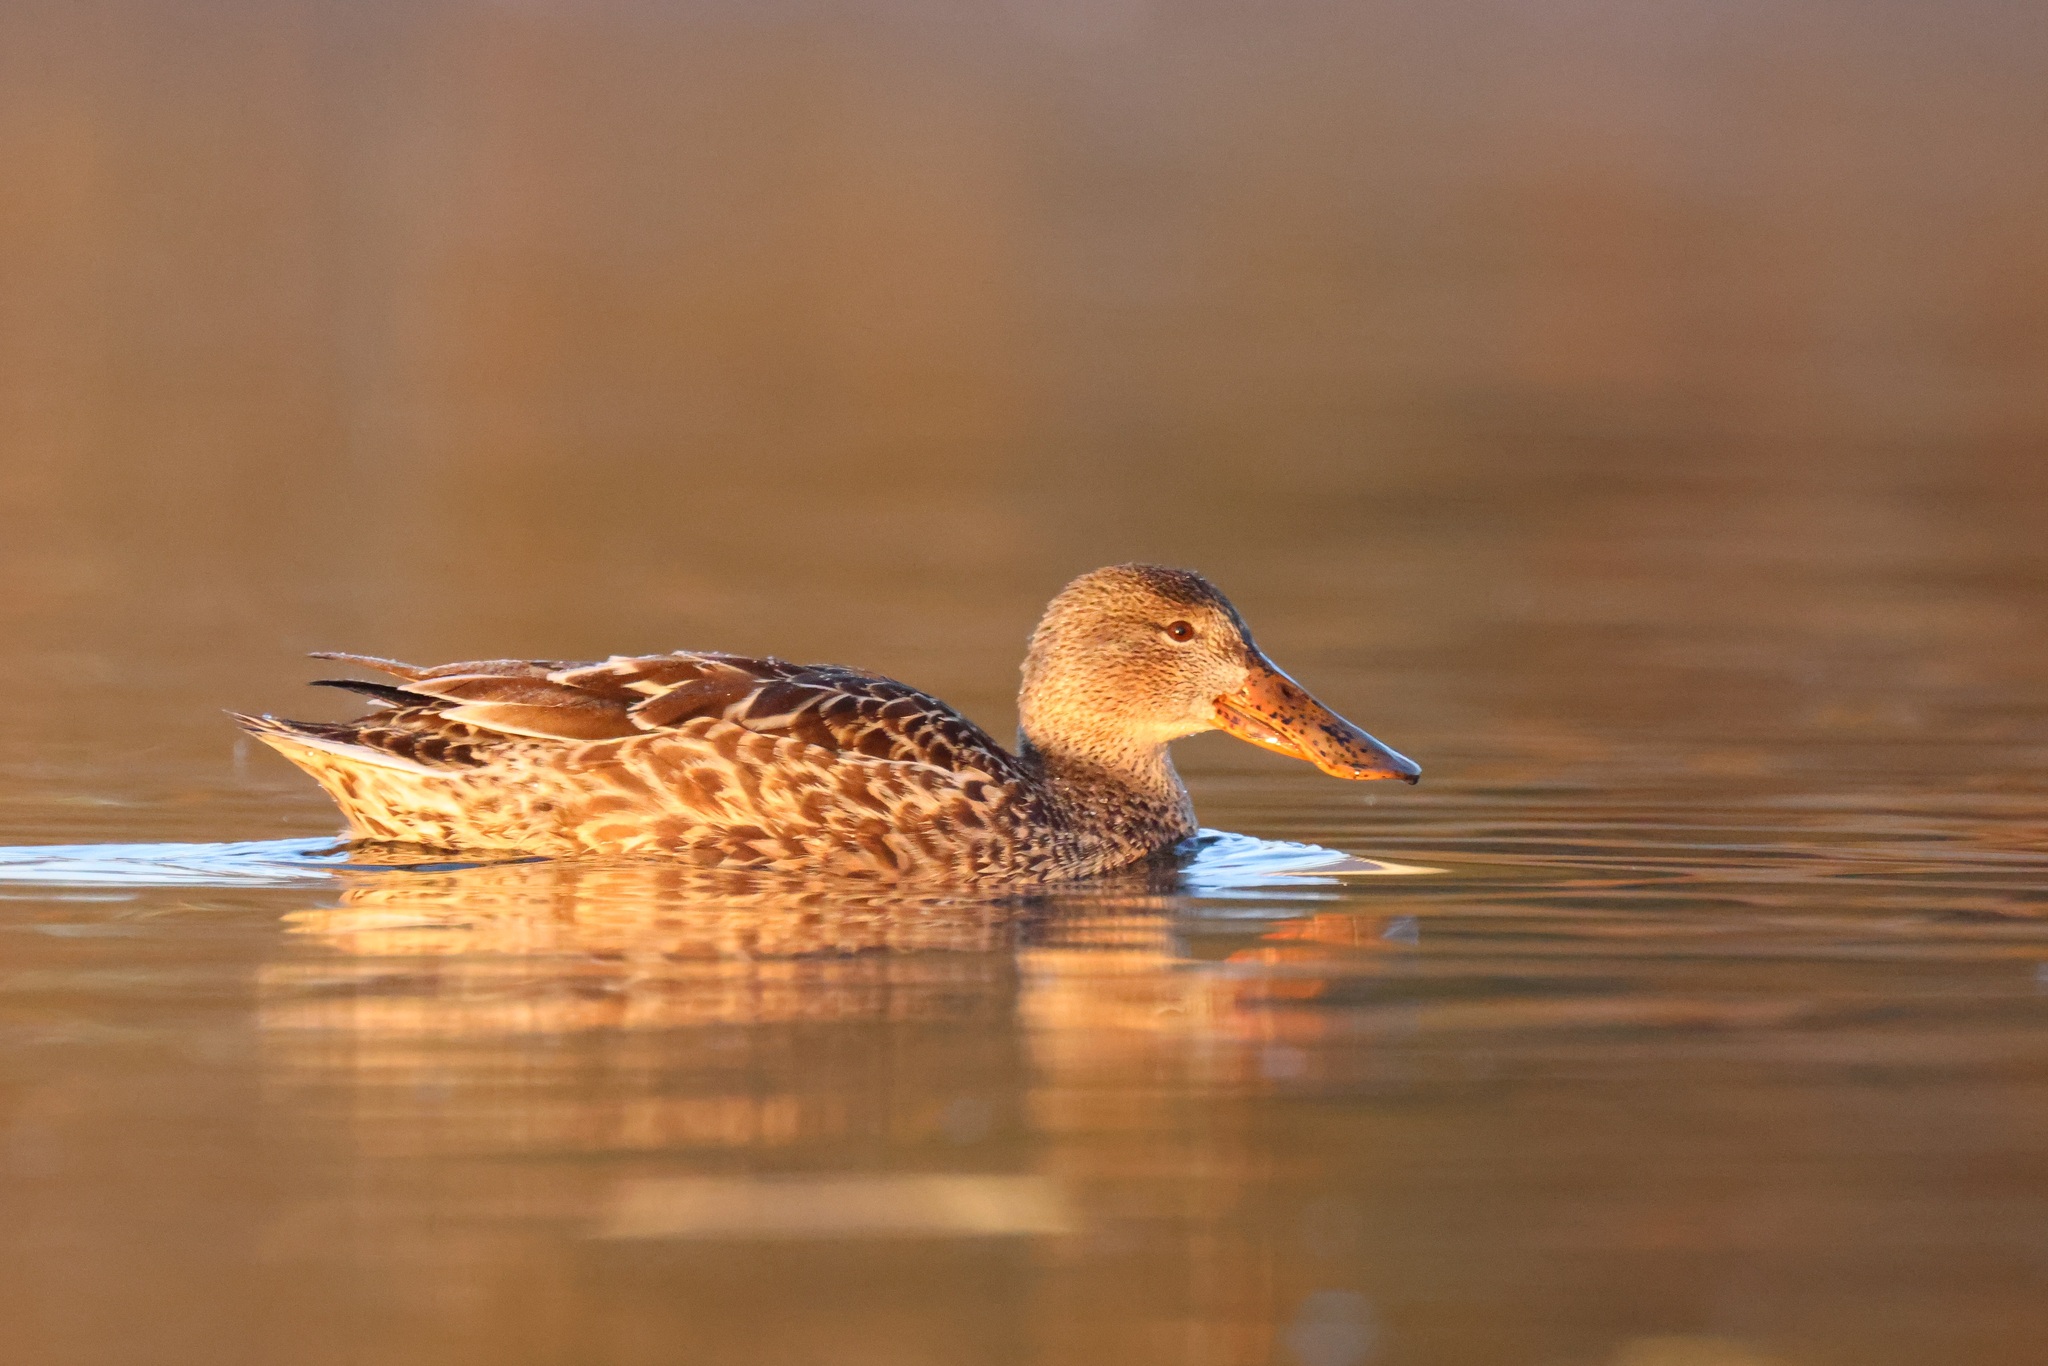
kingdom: Animalia
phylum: Chordata
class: Aves
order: Anseriformes
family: Anatidae
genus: Spatula
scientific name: Spatula clypeata
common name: Northern shoveler
